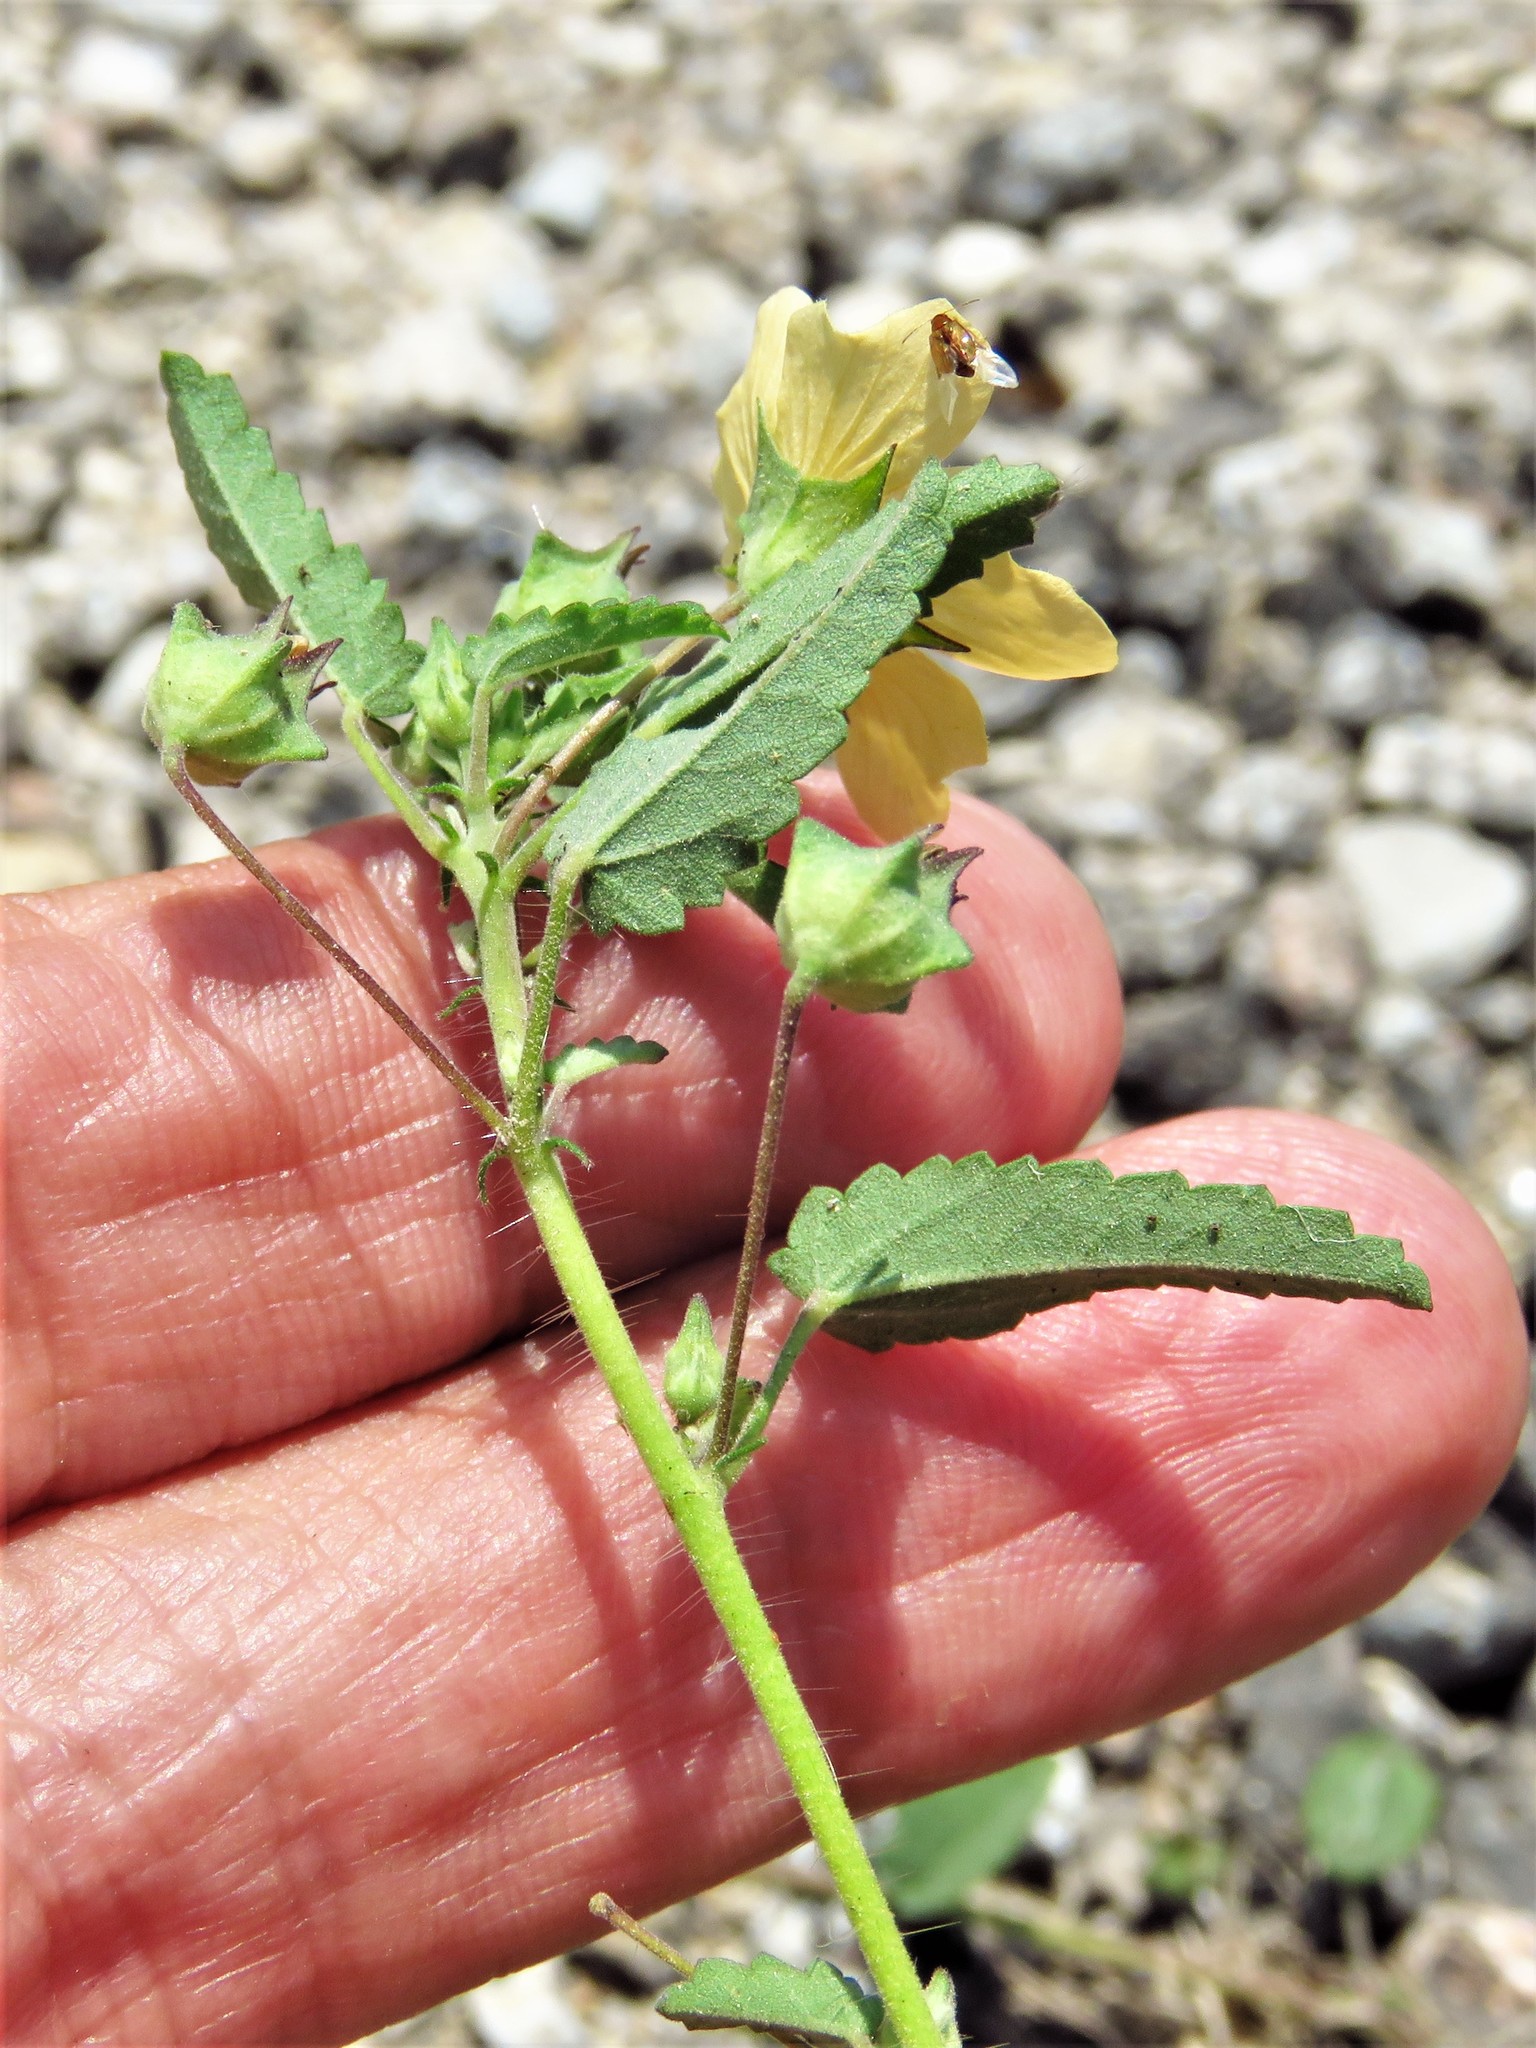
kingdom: Plantae
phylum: Tracheophyta
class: Magnoliopsida
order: Malvales
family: Malvaceae
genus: Sida
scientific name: Sida abutilifolia
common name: Spreading fanpetals
